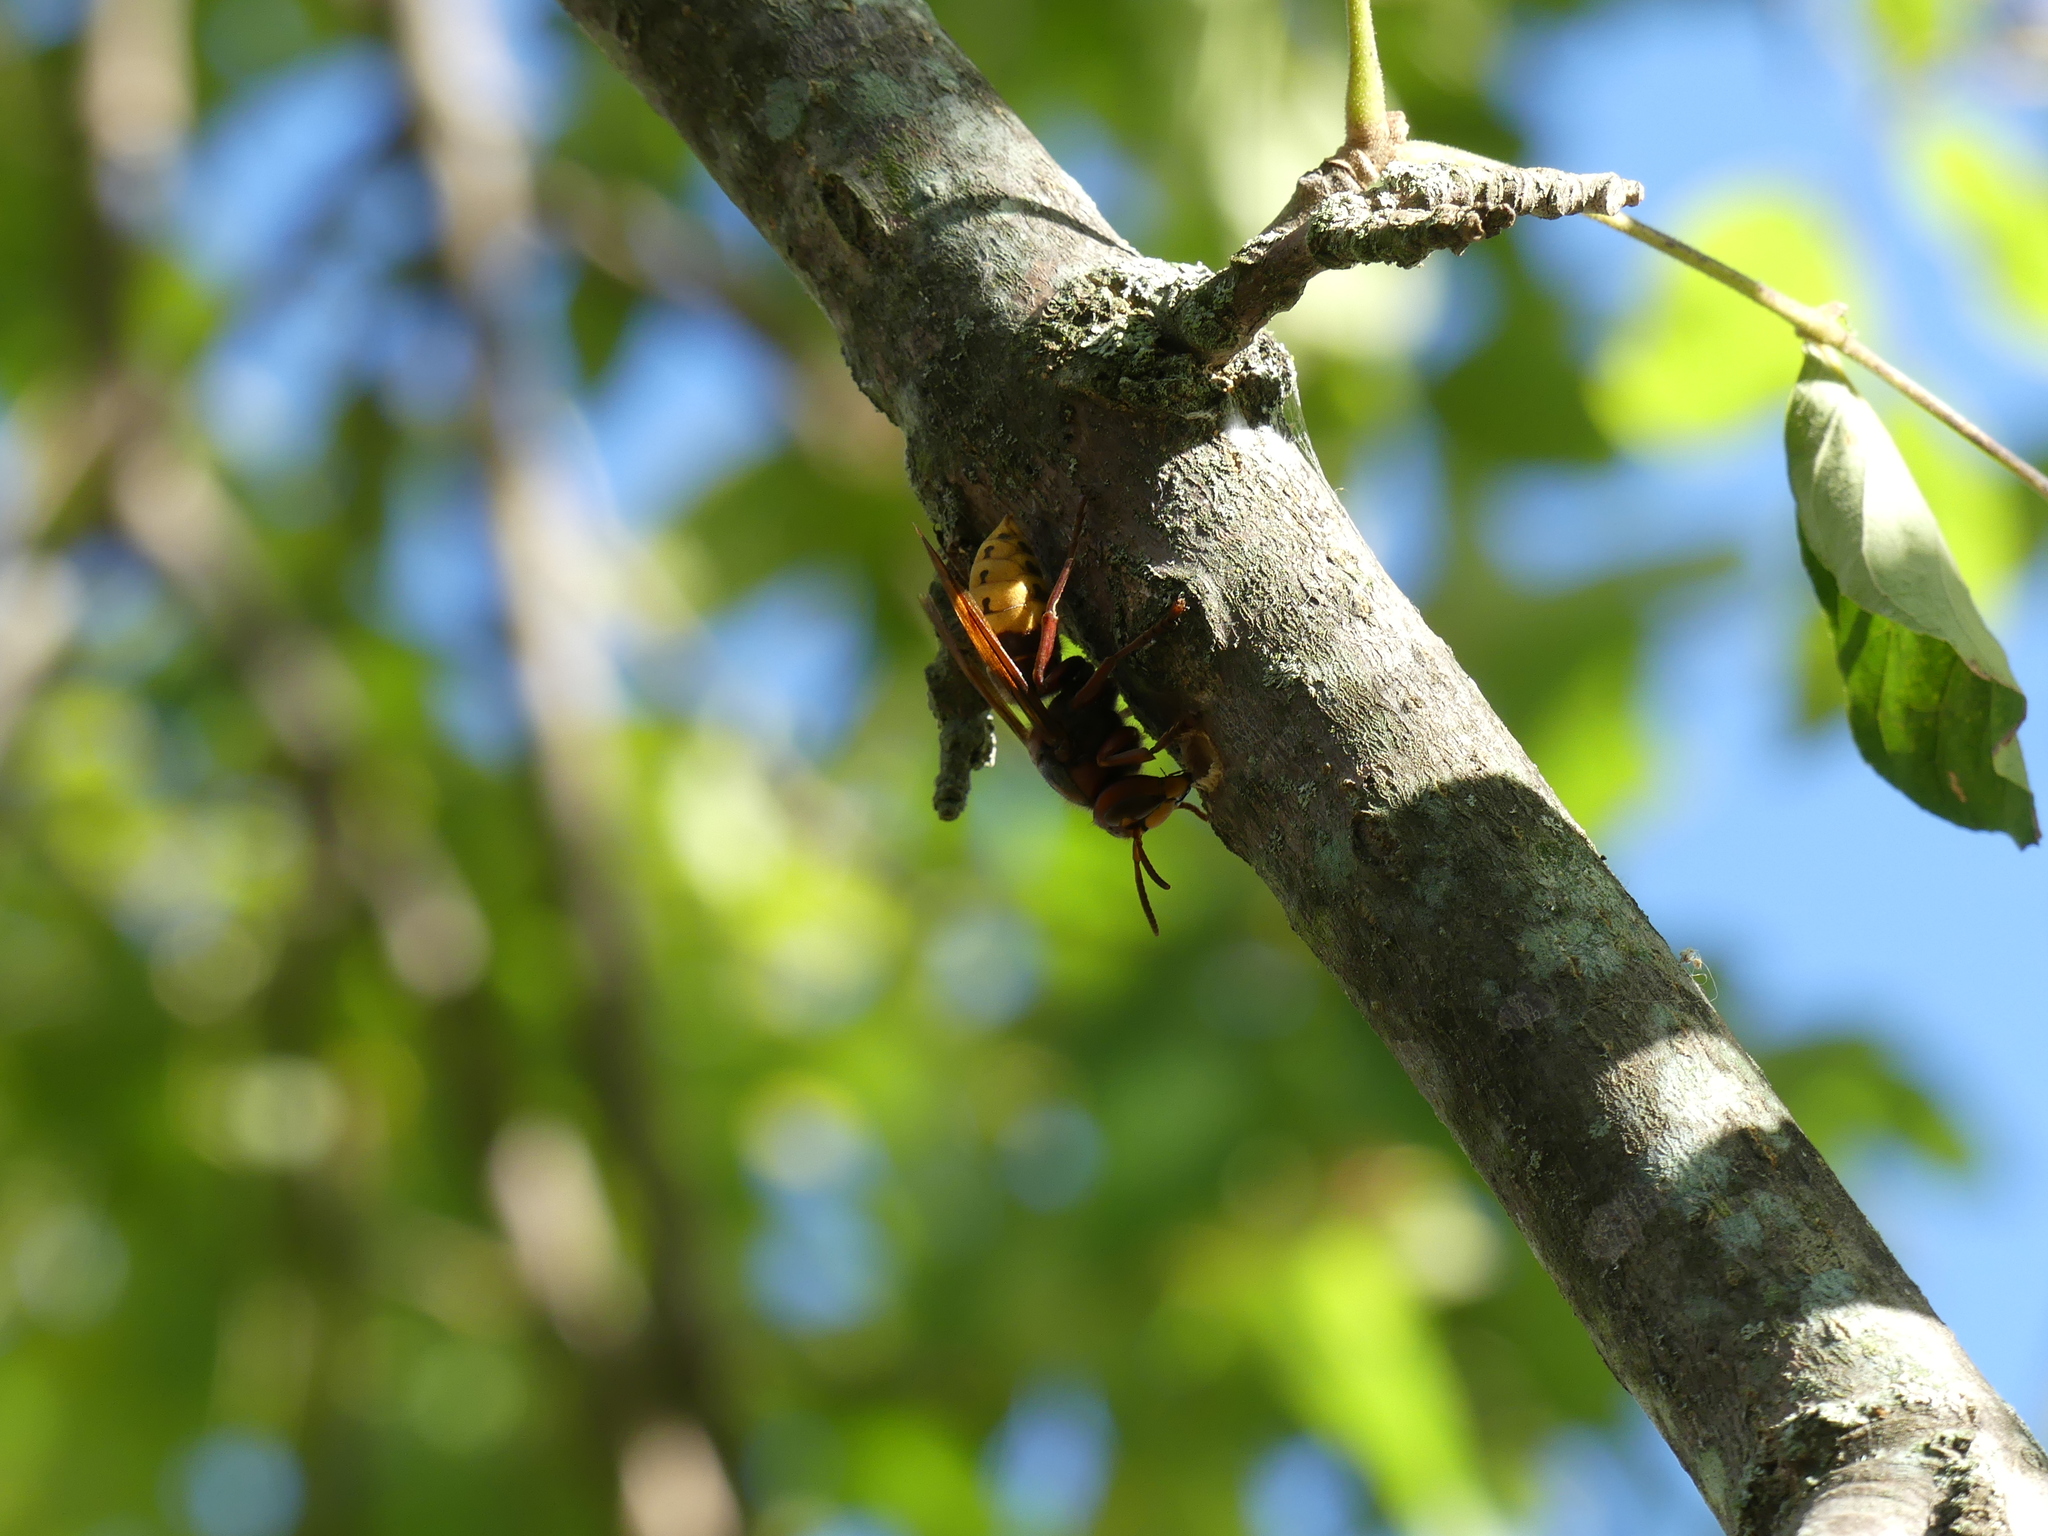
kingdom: Animalia
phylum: Arthropoda
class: Insecta
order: Hymenoptera
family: Vespidae
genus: Vespa
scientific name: Vespa crabro
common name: Hornet
